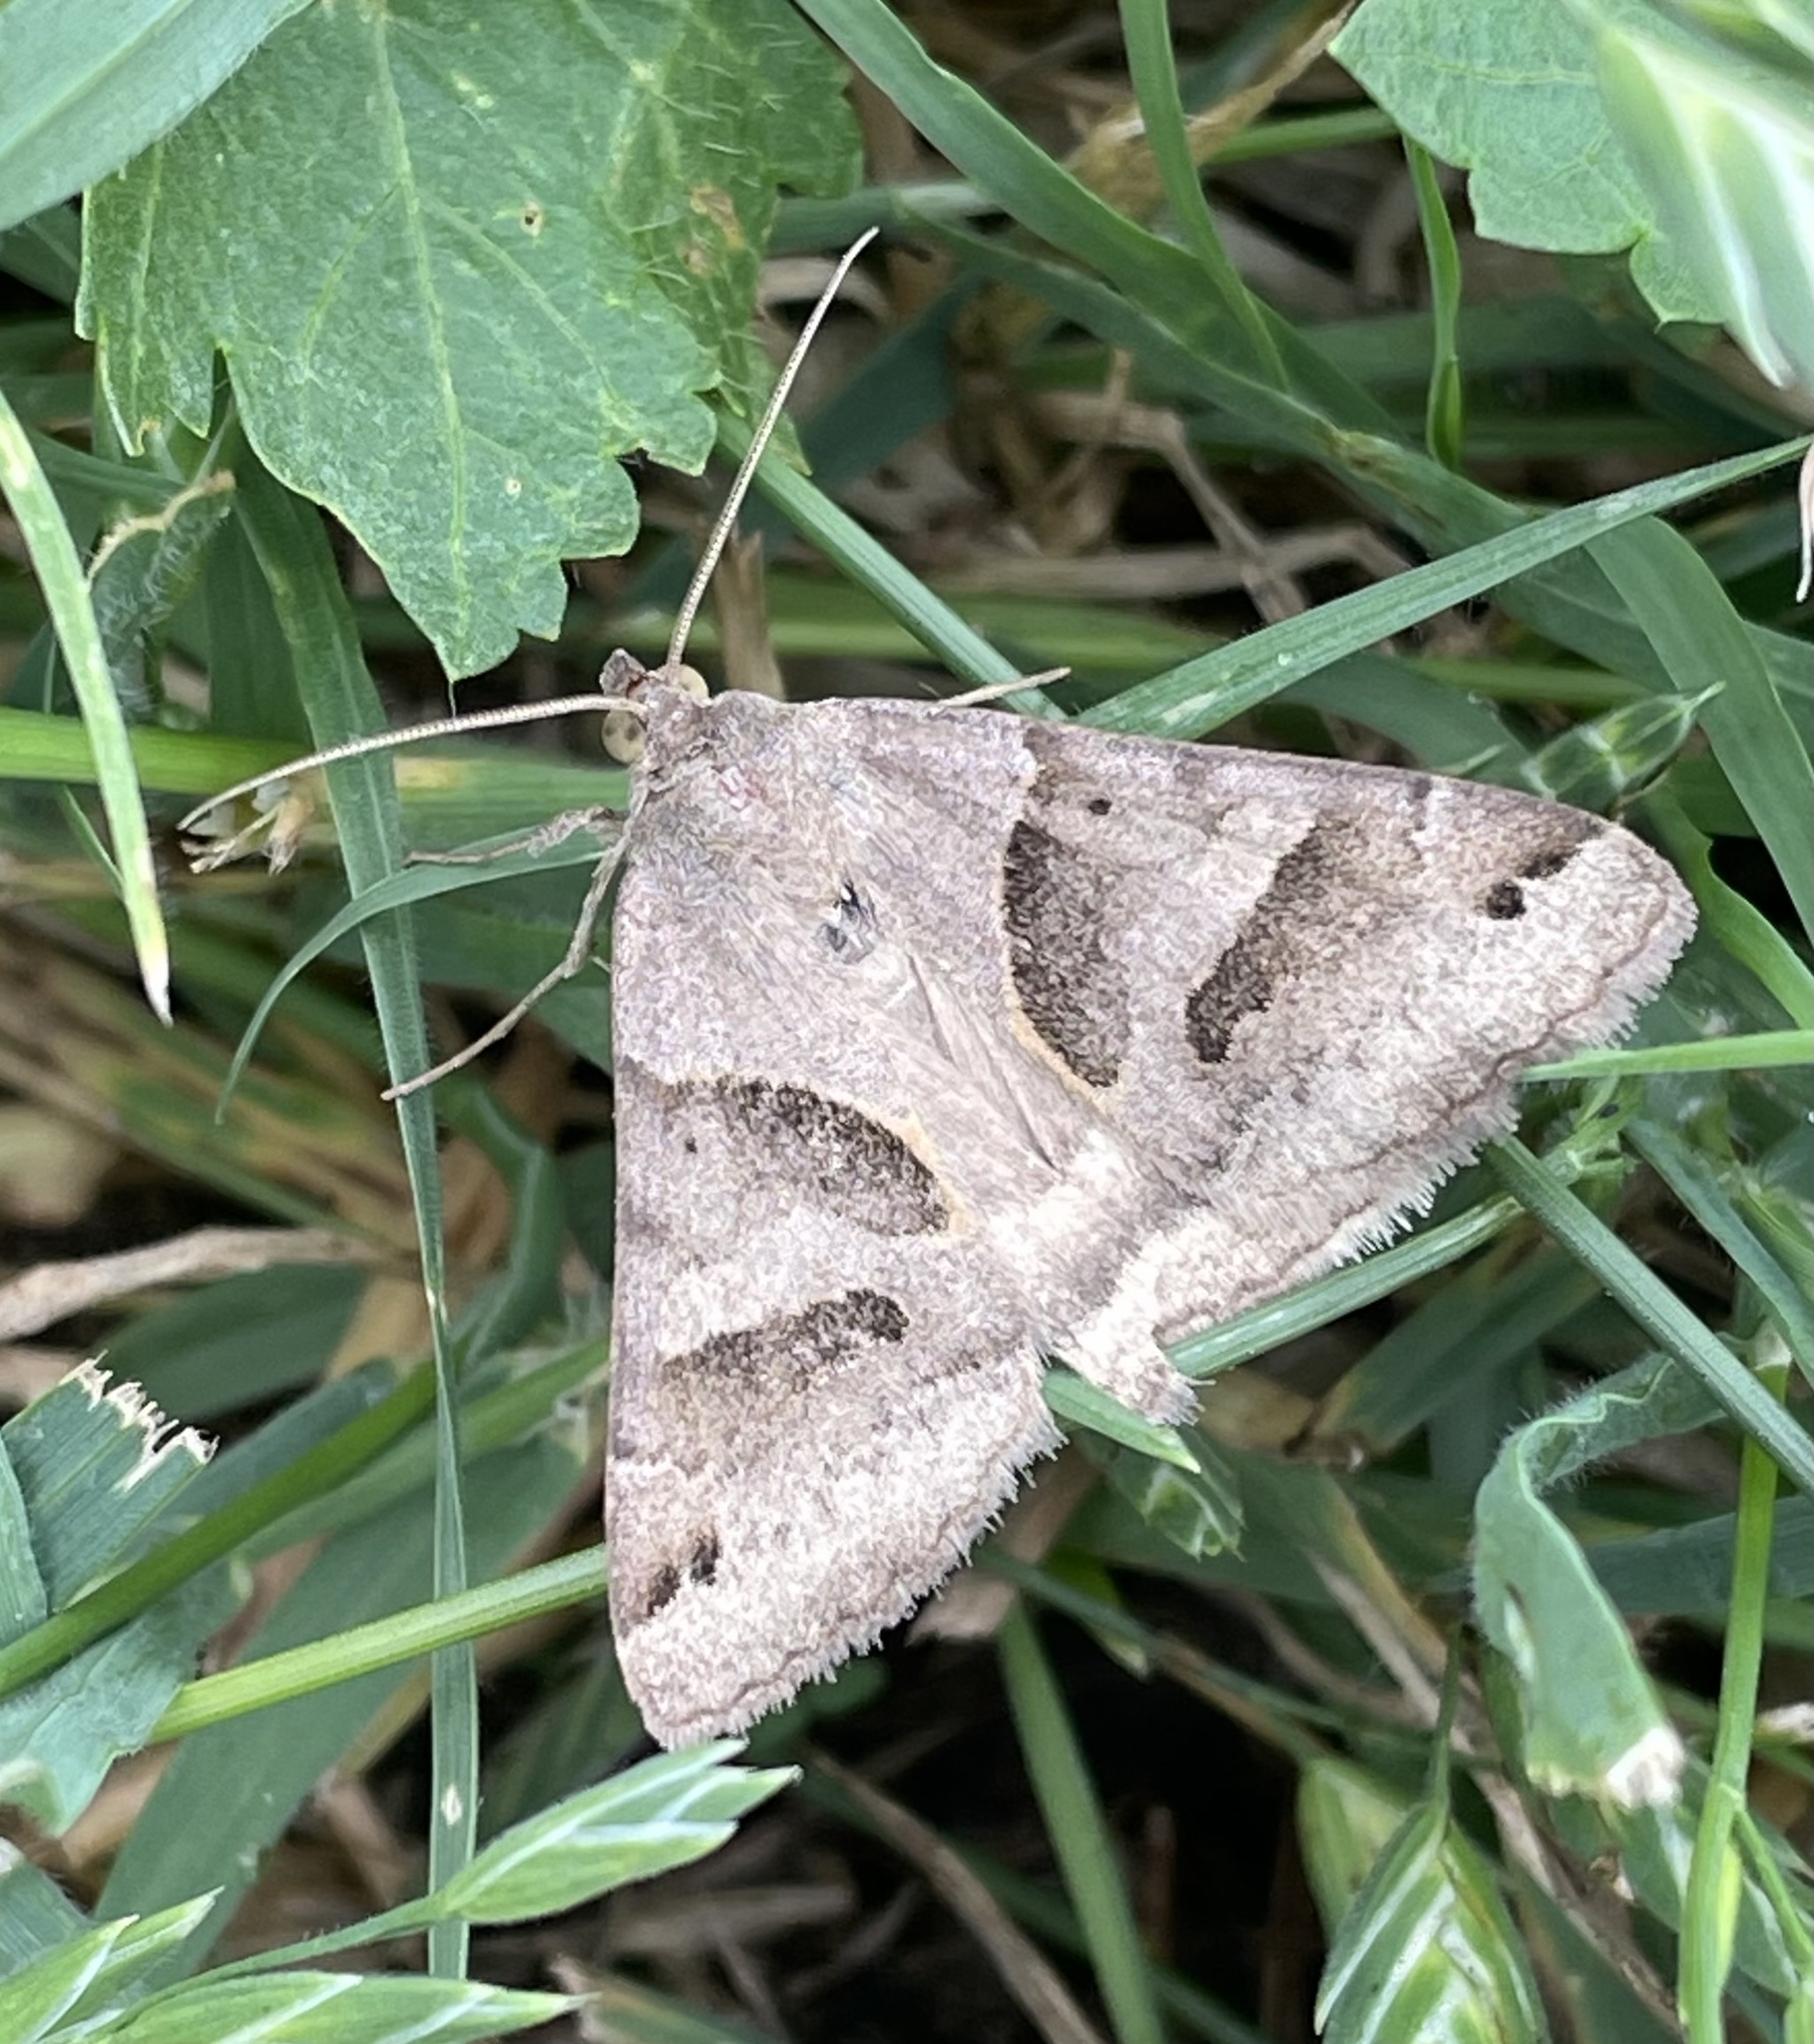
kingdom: Animalia
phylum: Arthropoda
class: Insecta
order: Lepidoptera
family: Erebidae
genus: Caenurgina
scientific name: Caenurgina erechtea
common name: Forage looper moth
